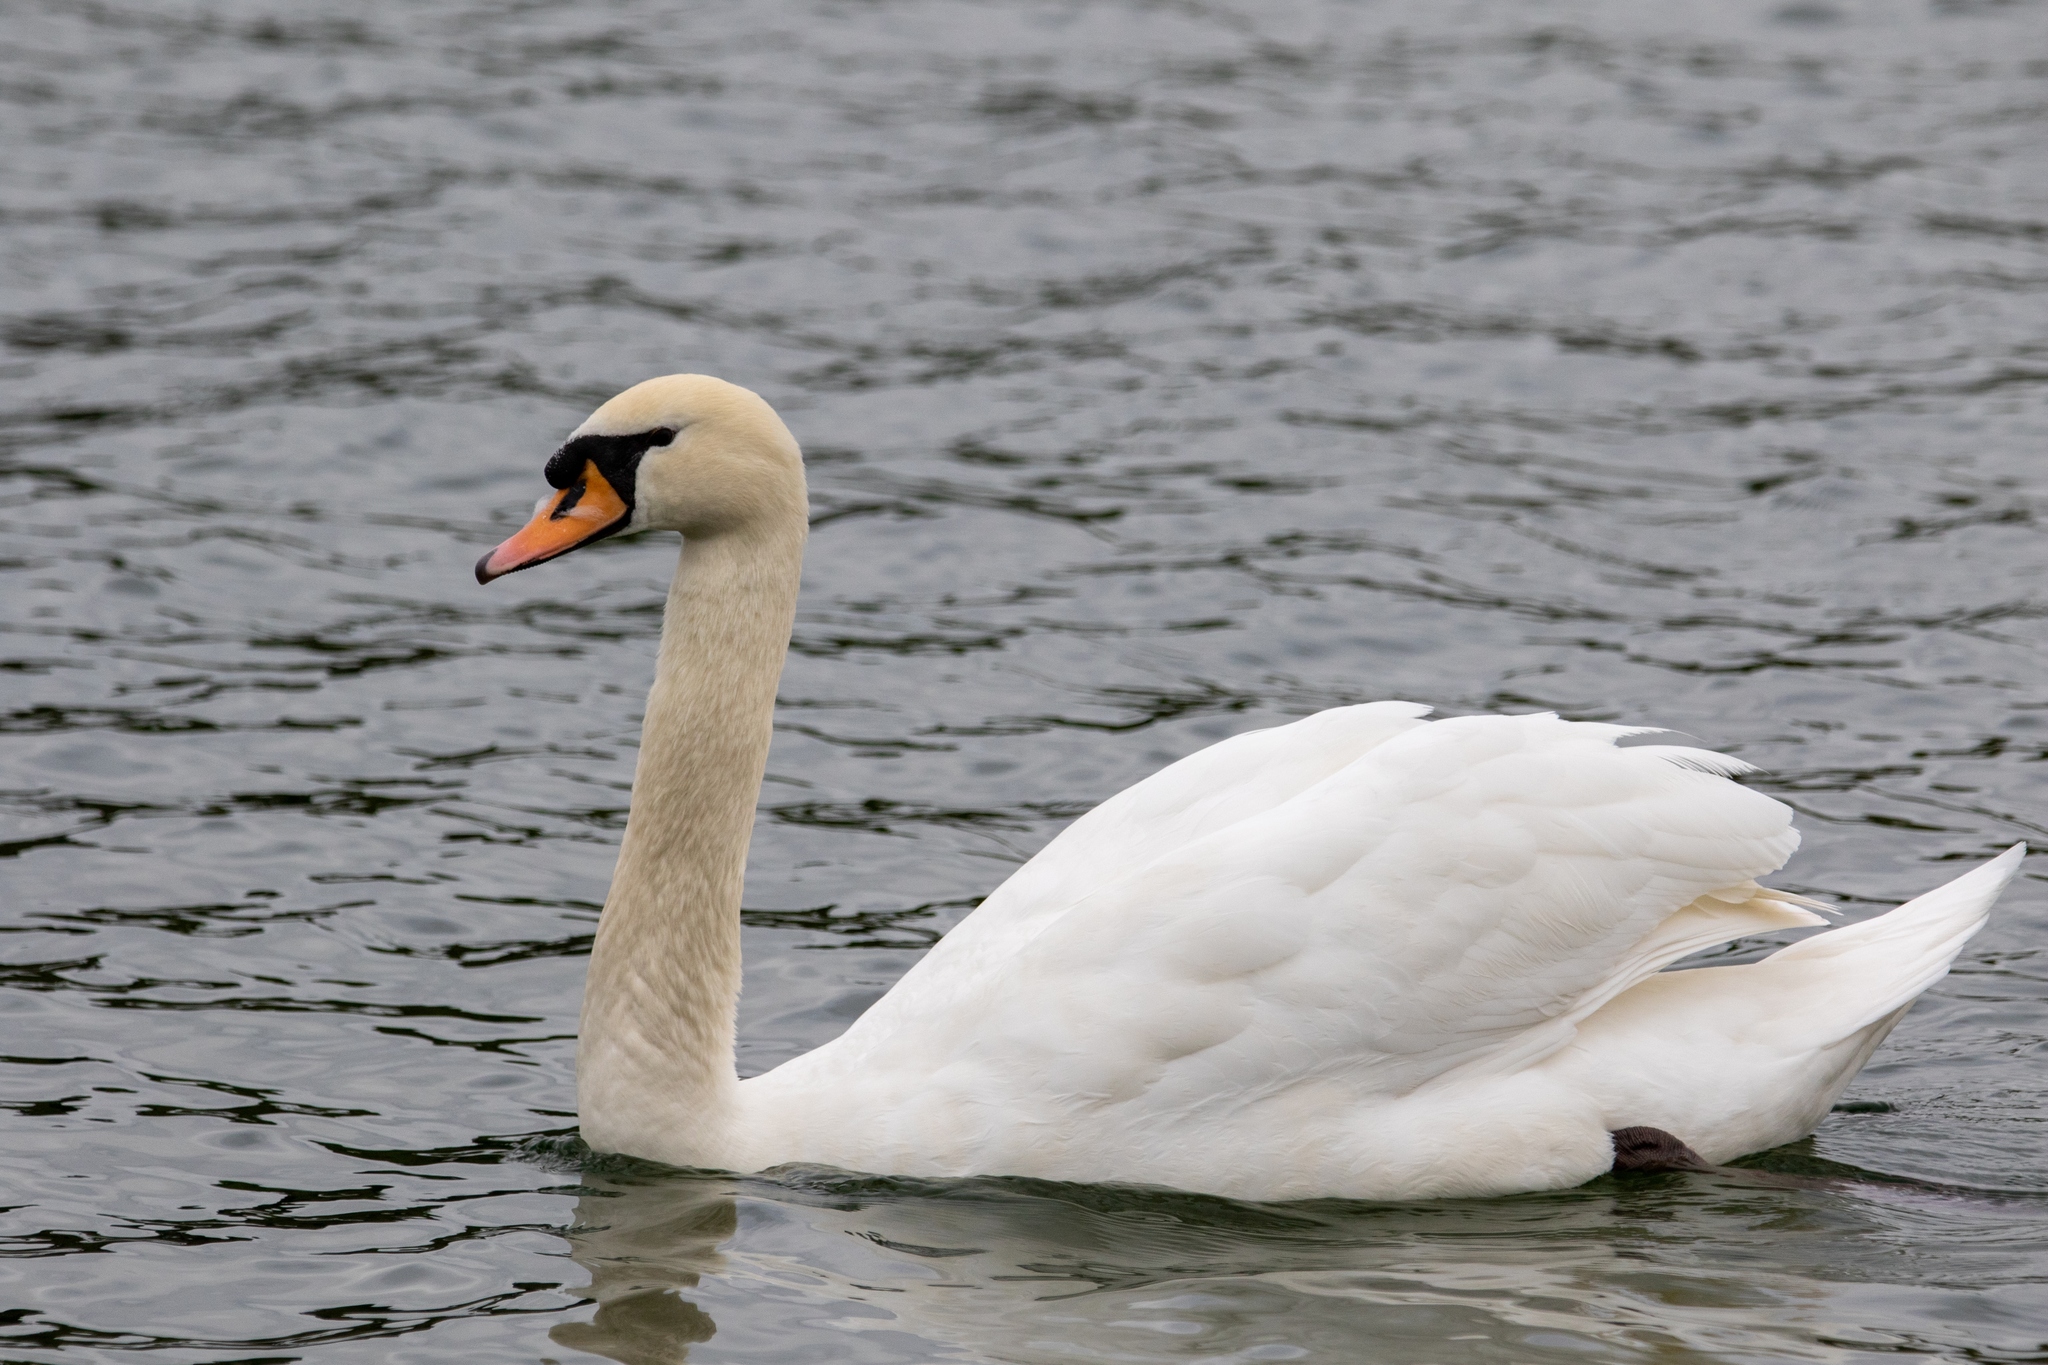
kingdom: Animalia
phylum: Chordata
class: Aves
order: Anseriformes
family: Anatidae
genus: Cygnus
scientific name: Cygnus olor
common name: Mute swan
